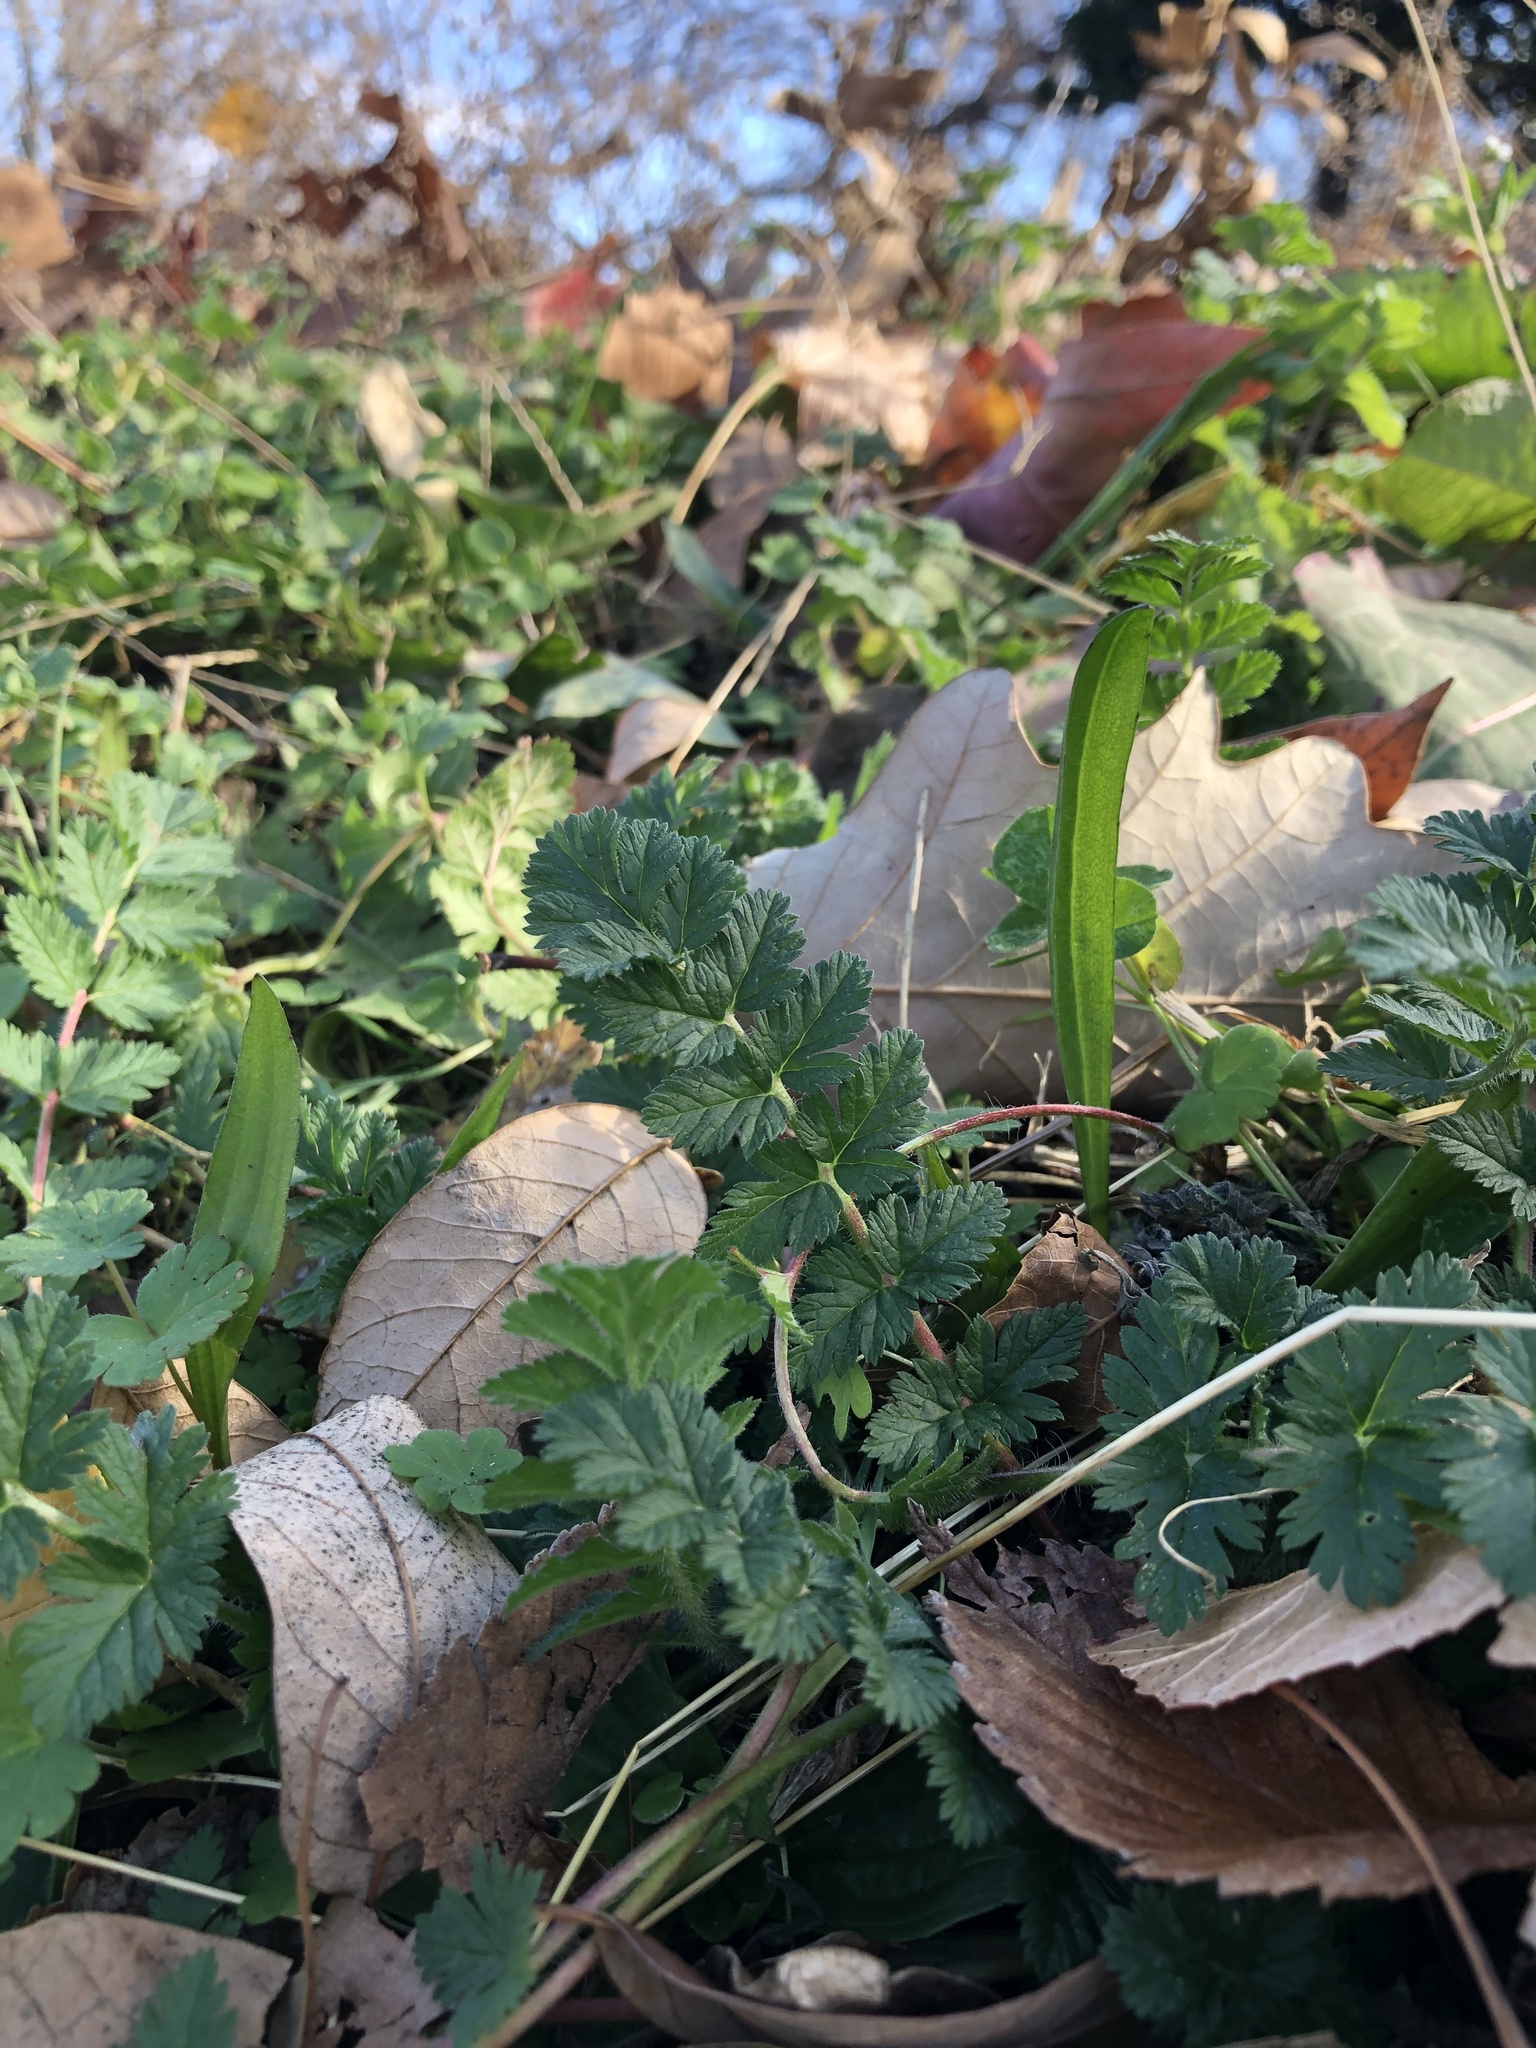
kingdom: Plantae
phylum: Tracheophyta
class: Magnoliopsida
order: Geraniales
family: Geraniaceae
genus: Erodium
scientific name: Erodium cicutarium
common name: Common stork's-bill
